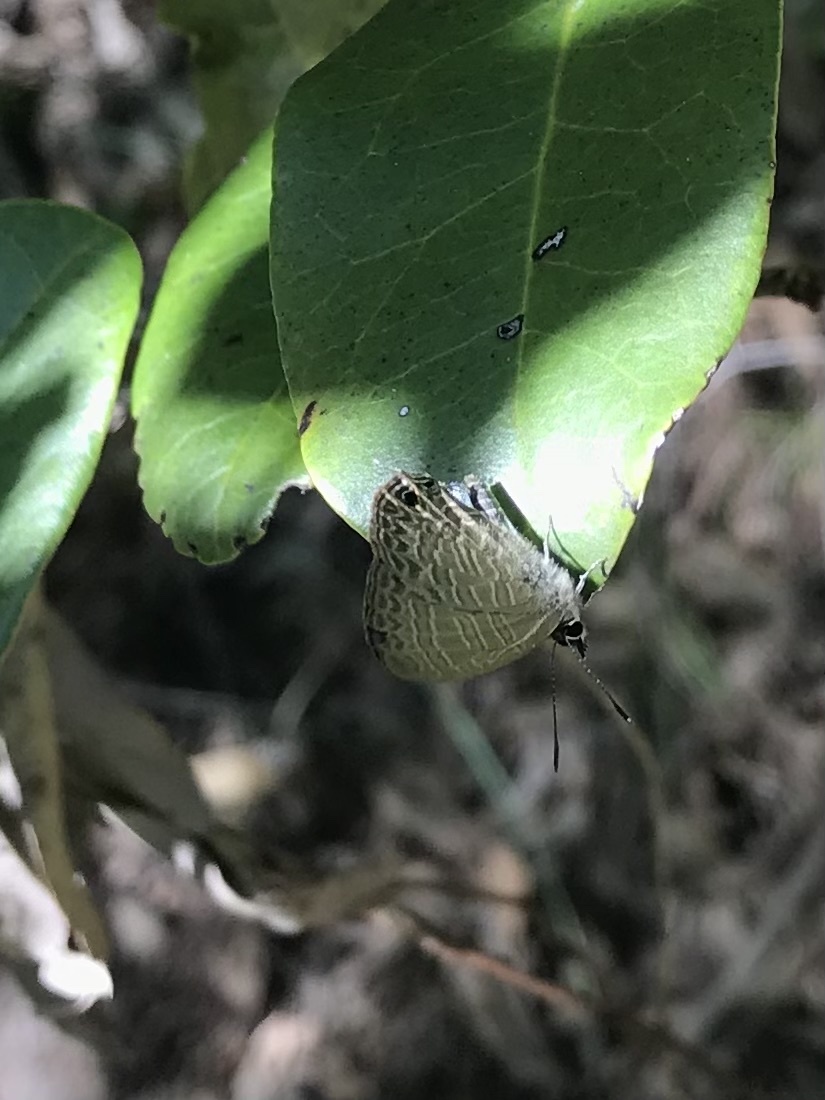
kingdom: Animalia
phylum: Arthropoda
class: Insecta
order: Lepidoptera
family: Lycaenidae
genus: Nacaduba
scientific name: Nacaduba berenice
